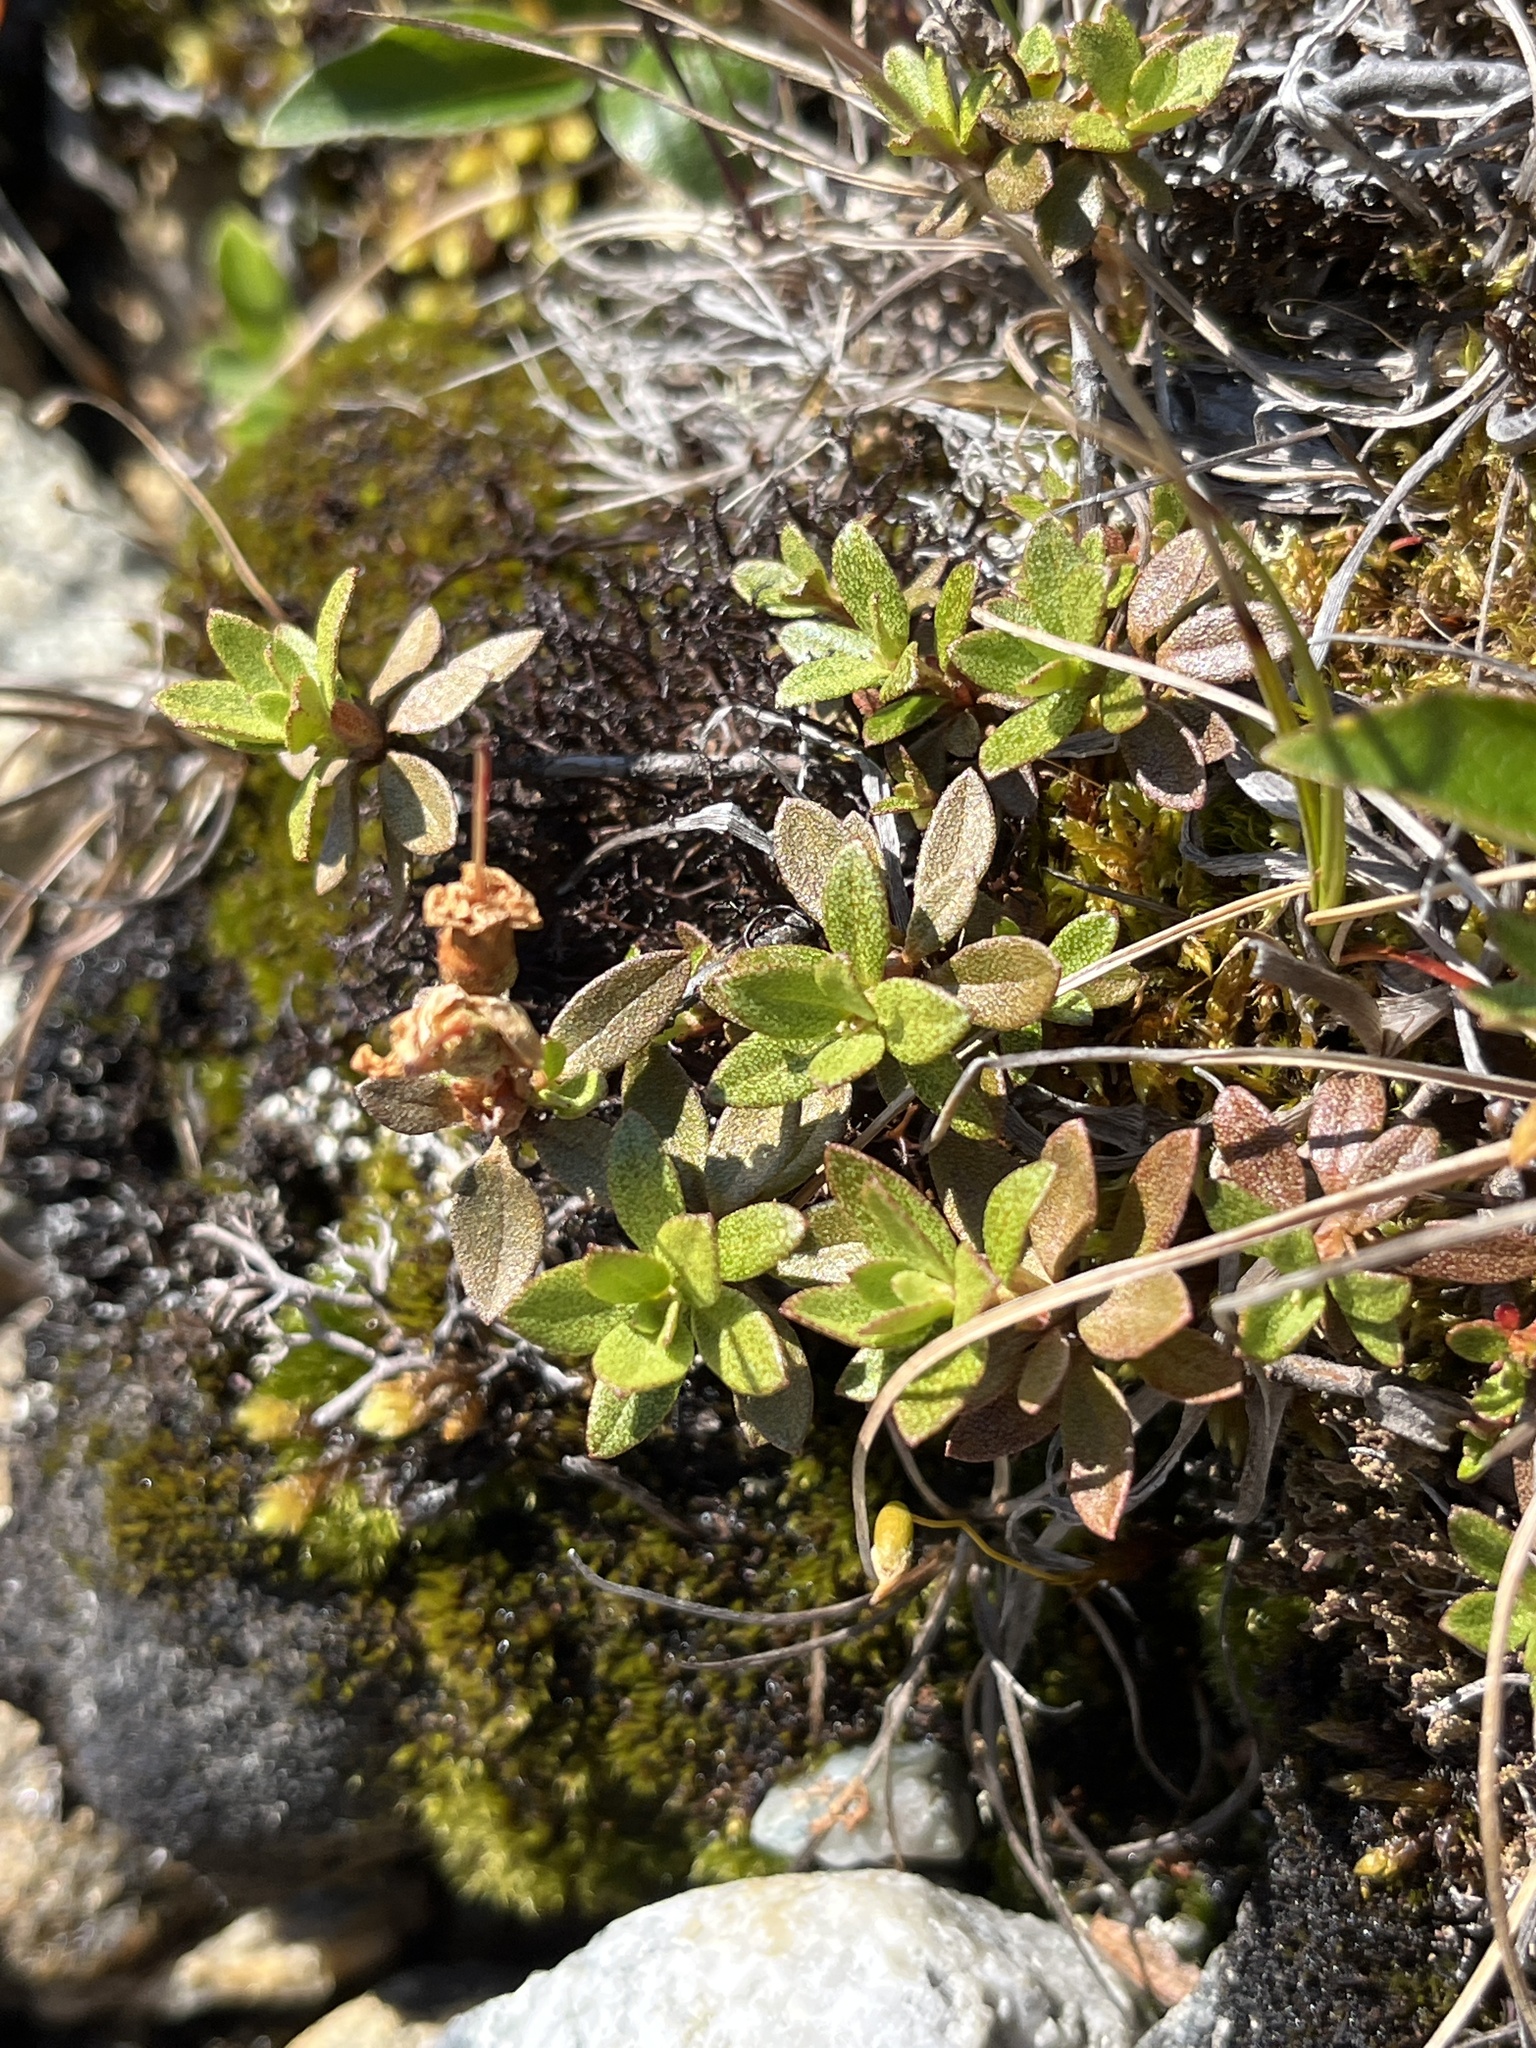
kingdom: Plantae
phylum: Tracheophyta
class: Magnoliopsida
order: Ericales
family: Ericaceae
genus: Rhododendron
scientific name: Rhododendron lapponicum
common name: Lapland rhododendron
